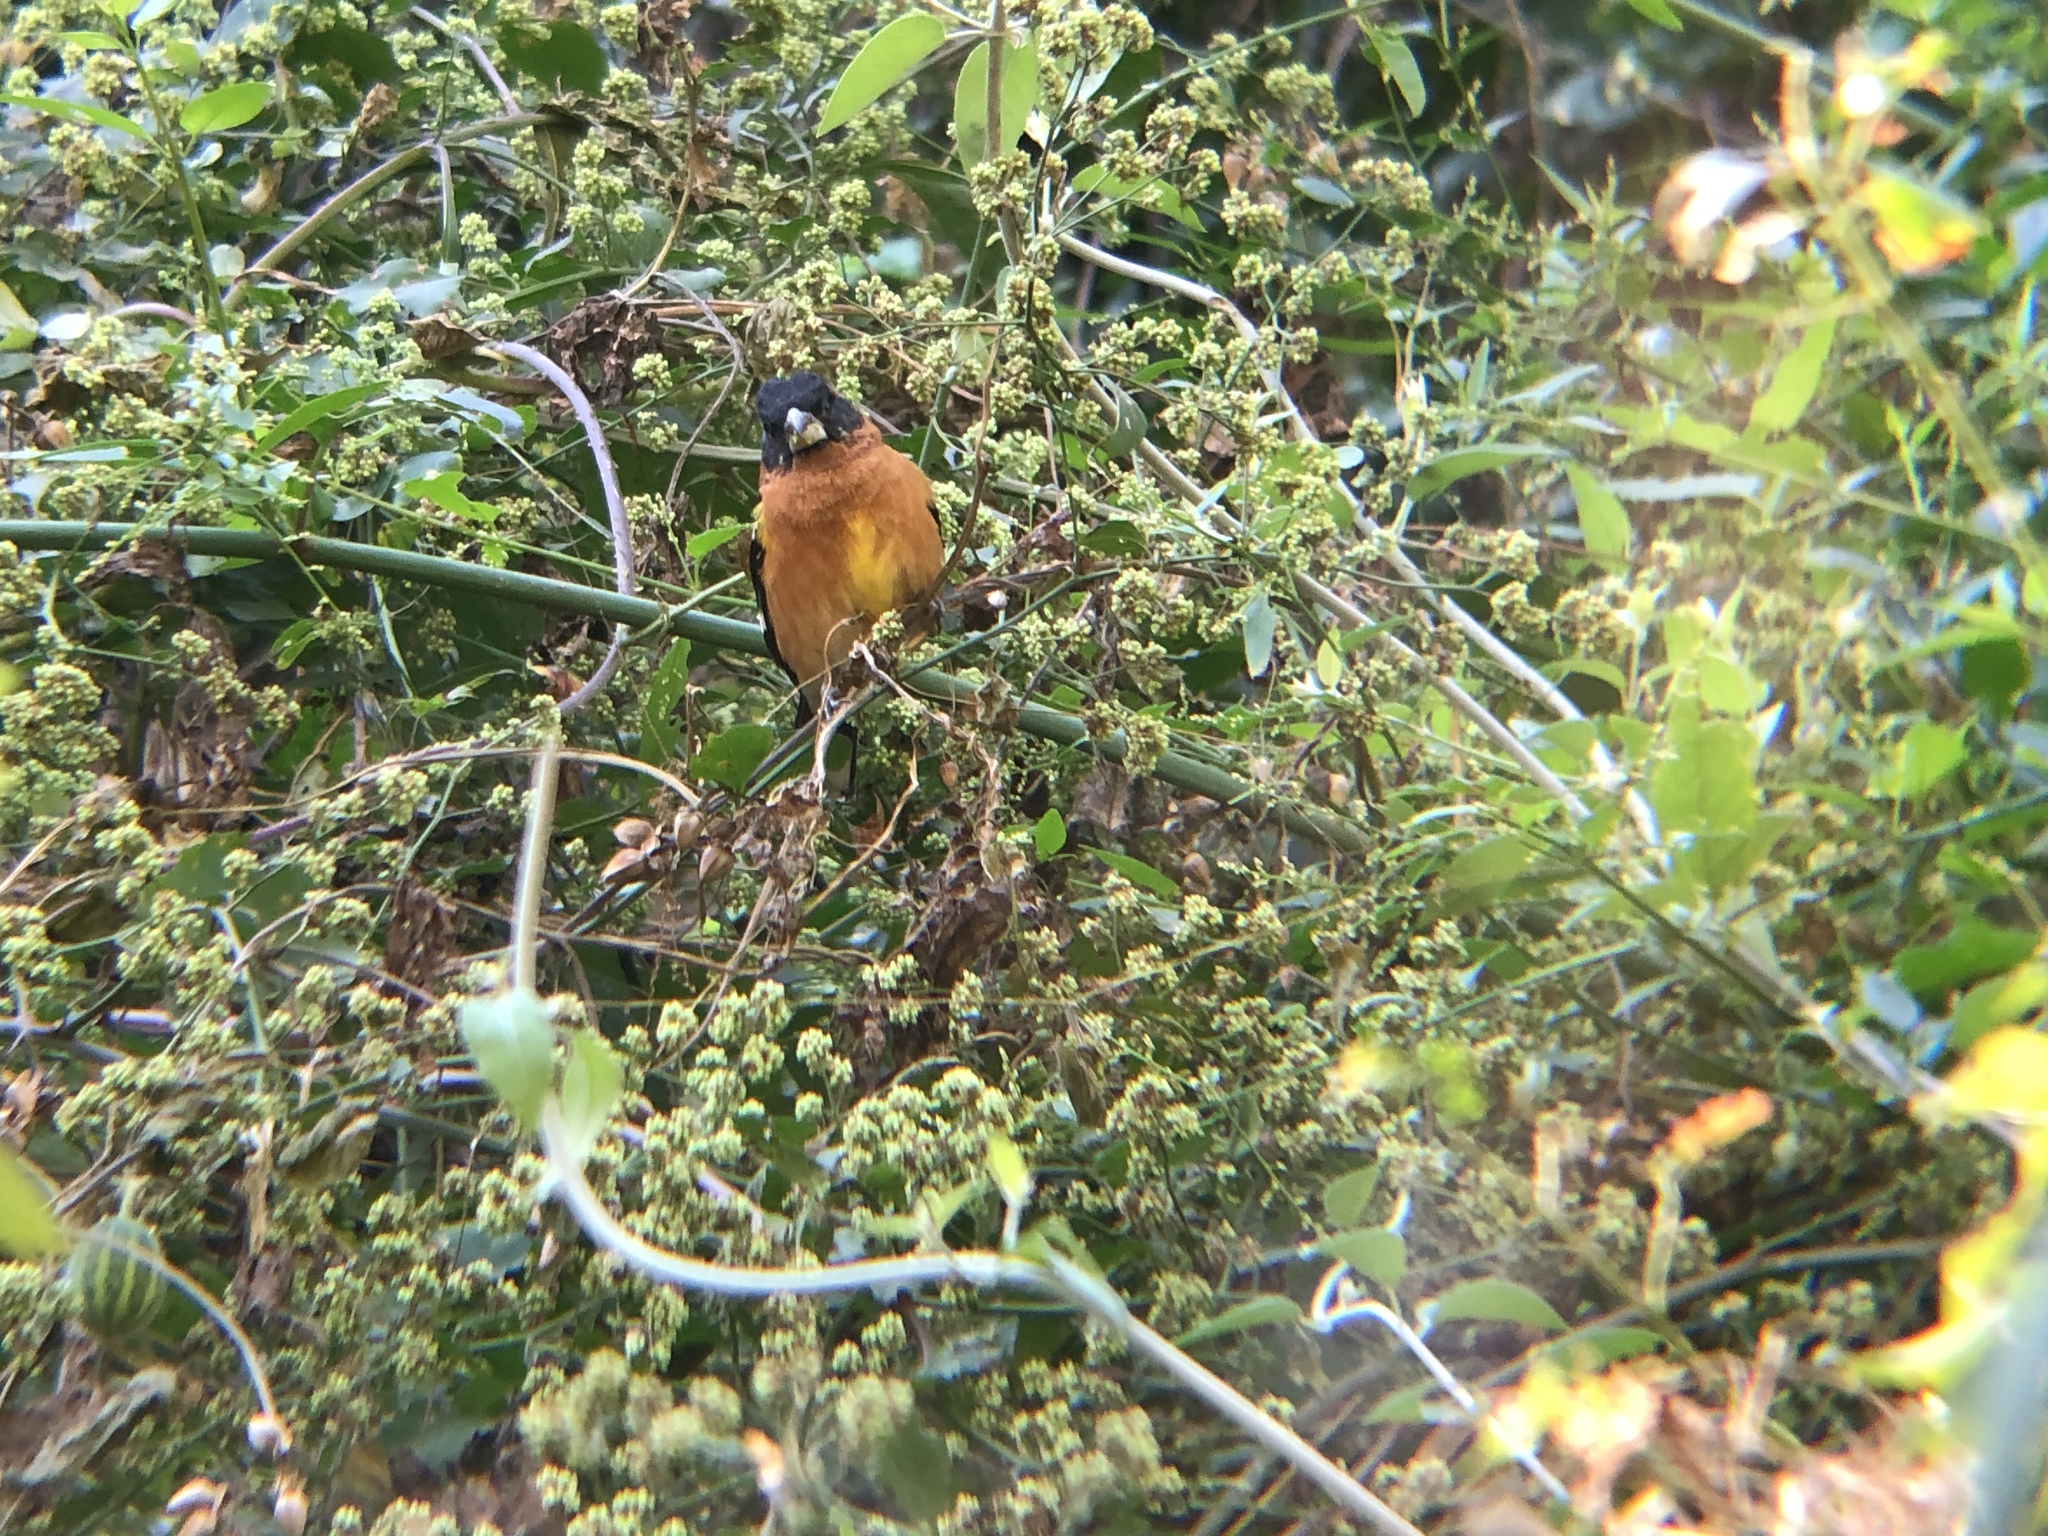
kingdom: Animalia
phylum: Chordata
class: Aves
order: Passeriformes
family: Cardinalidae
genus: Pheucticus
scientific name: Pheucticus melanocephalus
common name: Black-headed grosbeak
